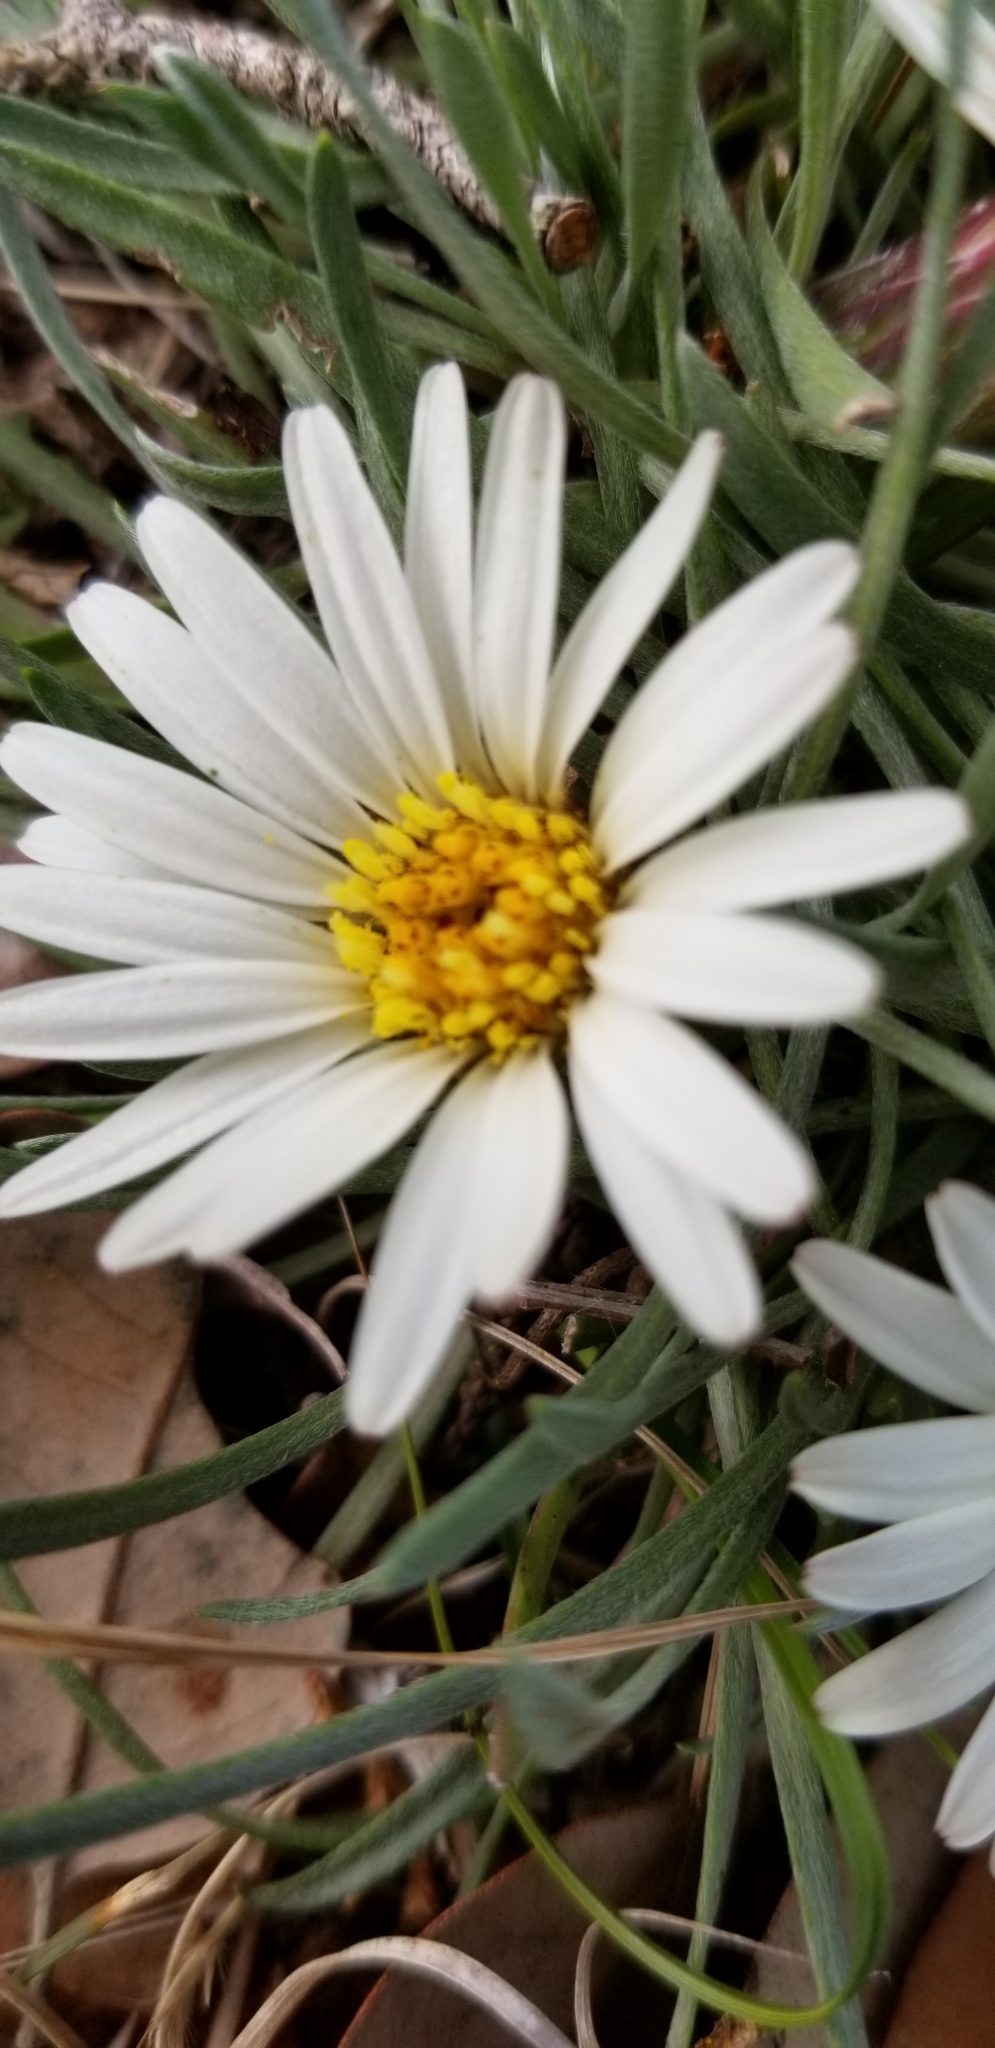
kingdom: Plantae
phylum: Tracheophyta
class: Magnoliopsida
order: Asterales
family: Asteraceae
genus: Townsendia
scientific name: Townsendia exscapa
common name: Dwarf townsendia
